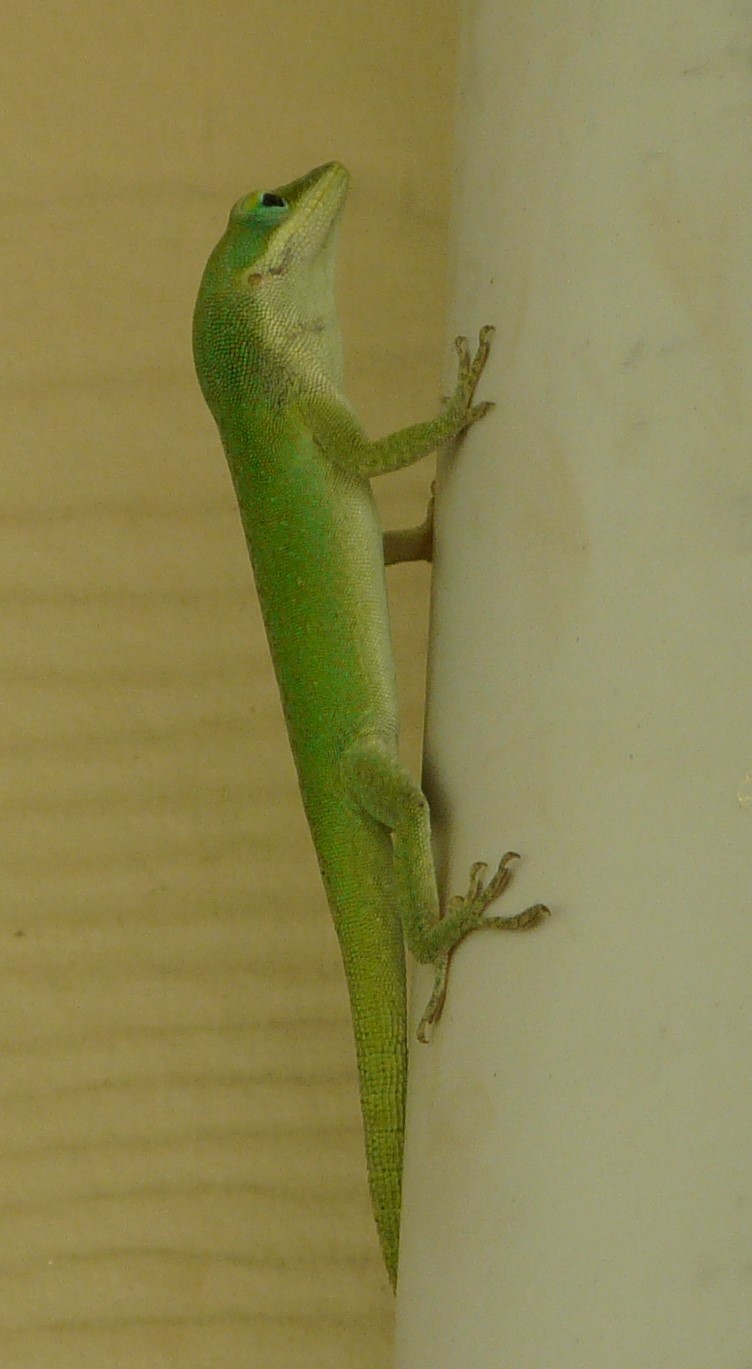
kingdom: Animalia
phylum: Chordata
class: Squamata
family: Dactyloidae
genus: Anolis
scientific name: Anolis carolinensis
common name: Green anole
